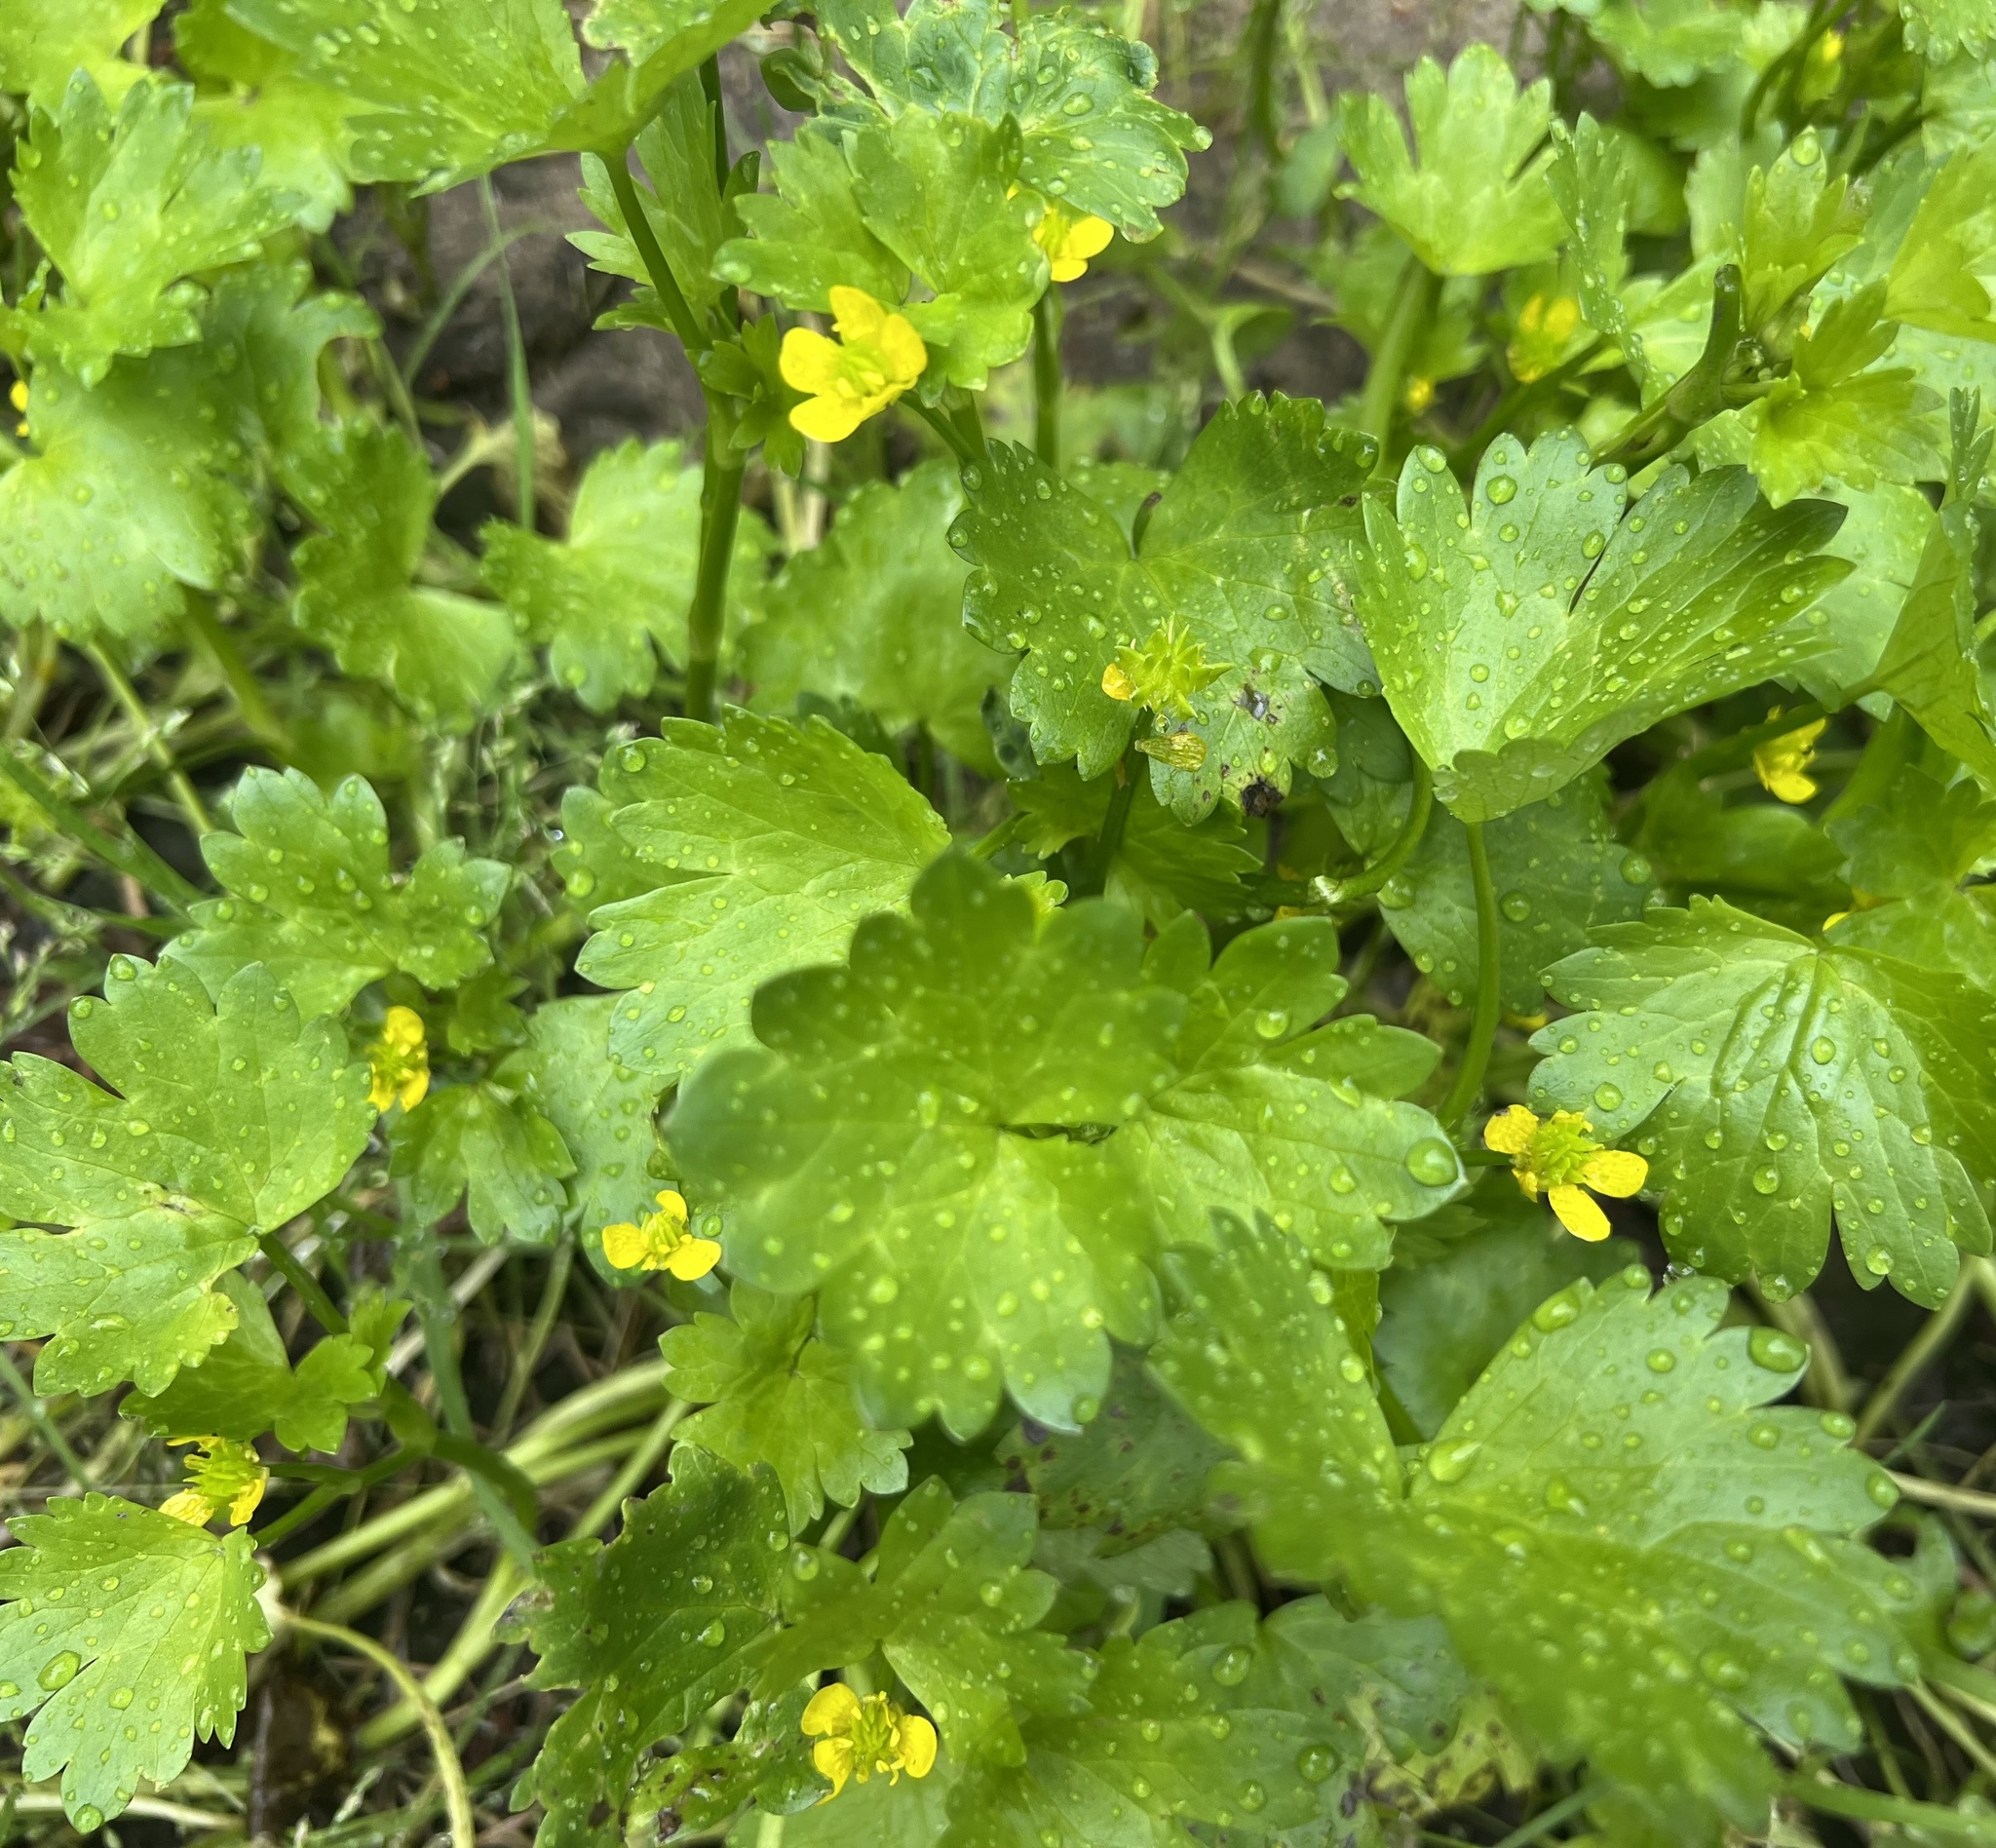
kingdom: Plantae
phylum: Tracheophyta
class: Magnoliopsida
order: Ranunculales
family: Ranunculaceae
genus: Ranunculus
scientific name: Ranunculus muricatus
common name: Rough-fruited buttercup
